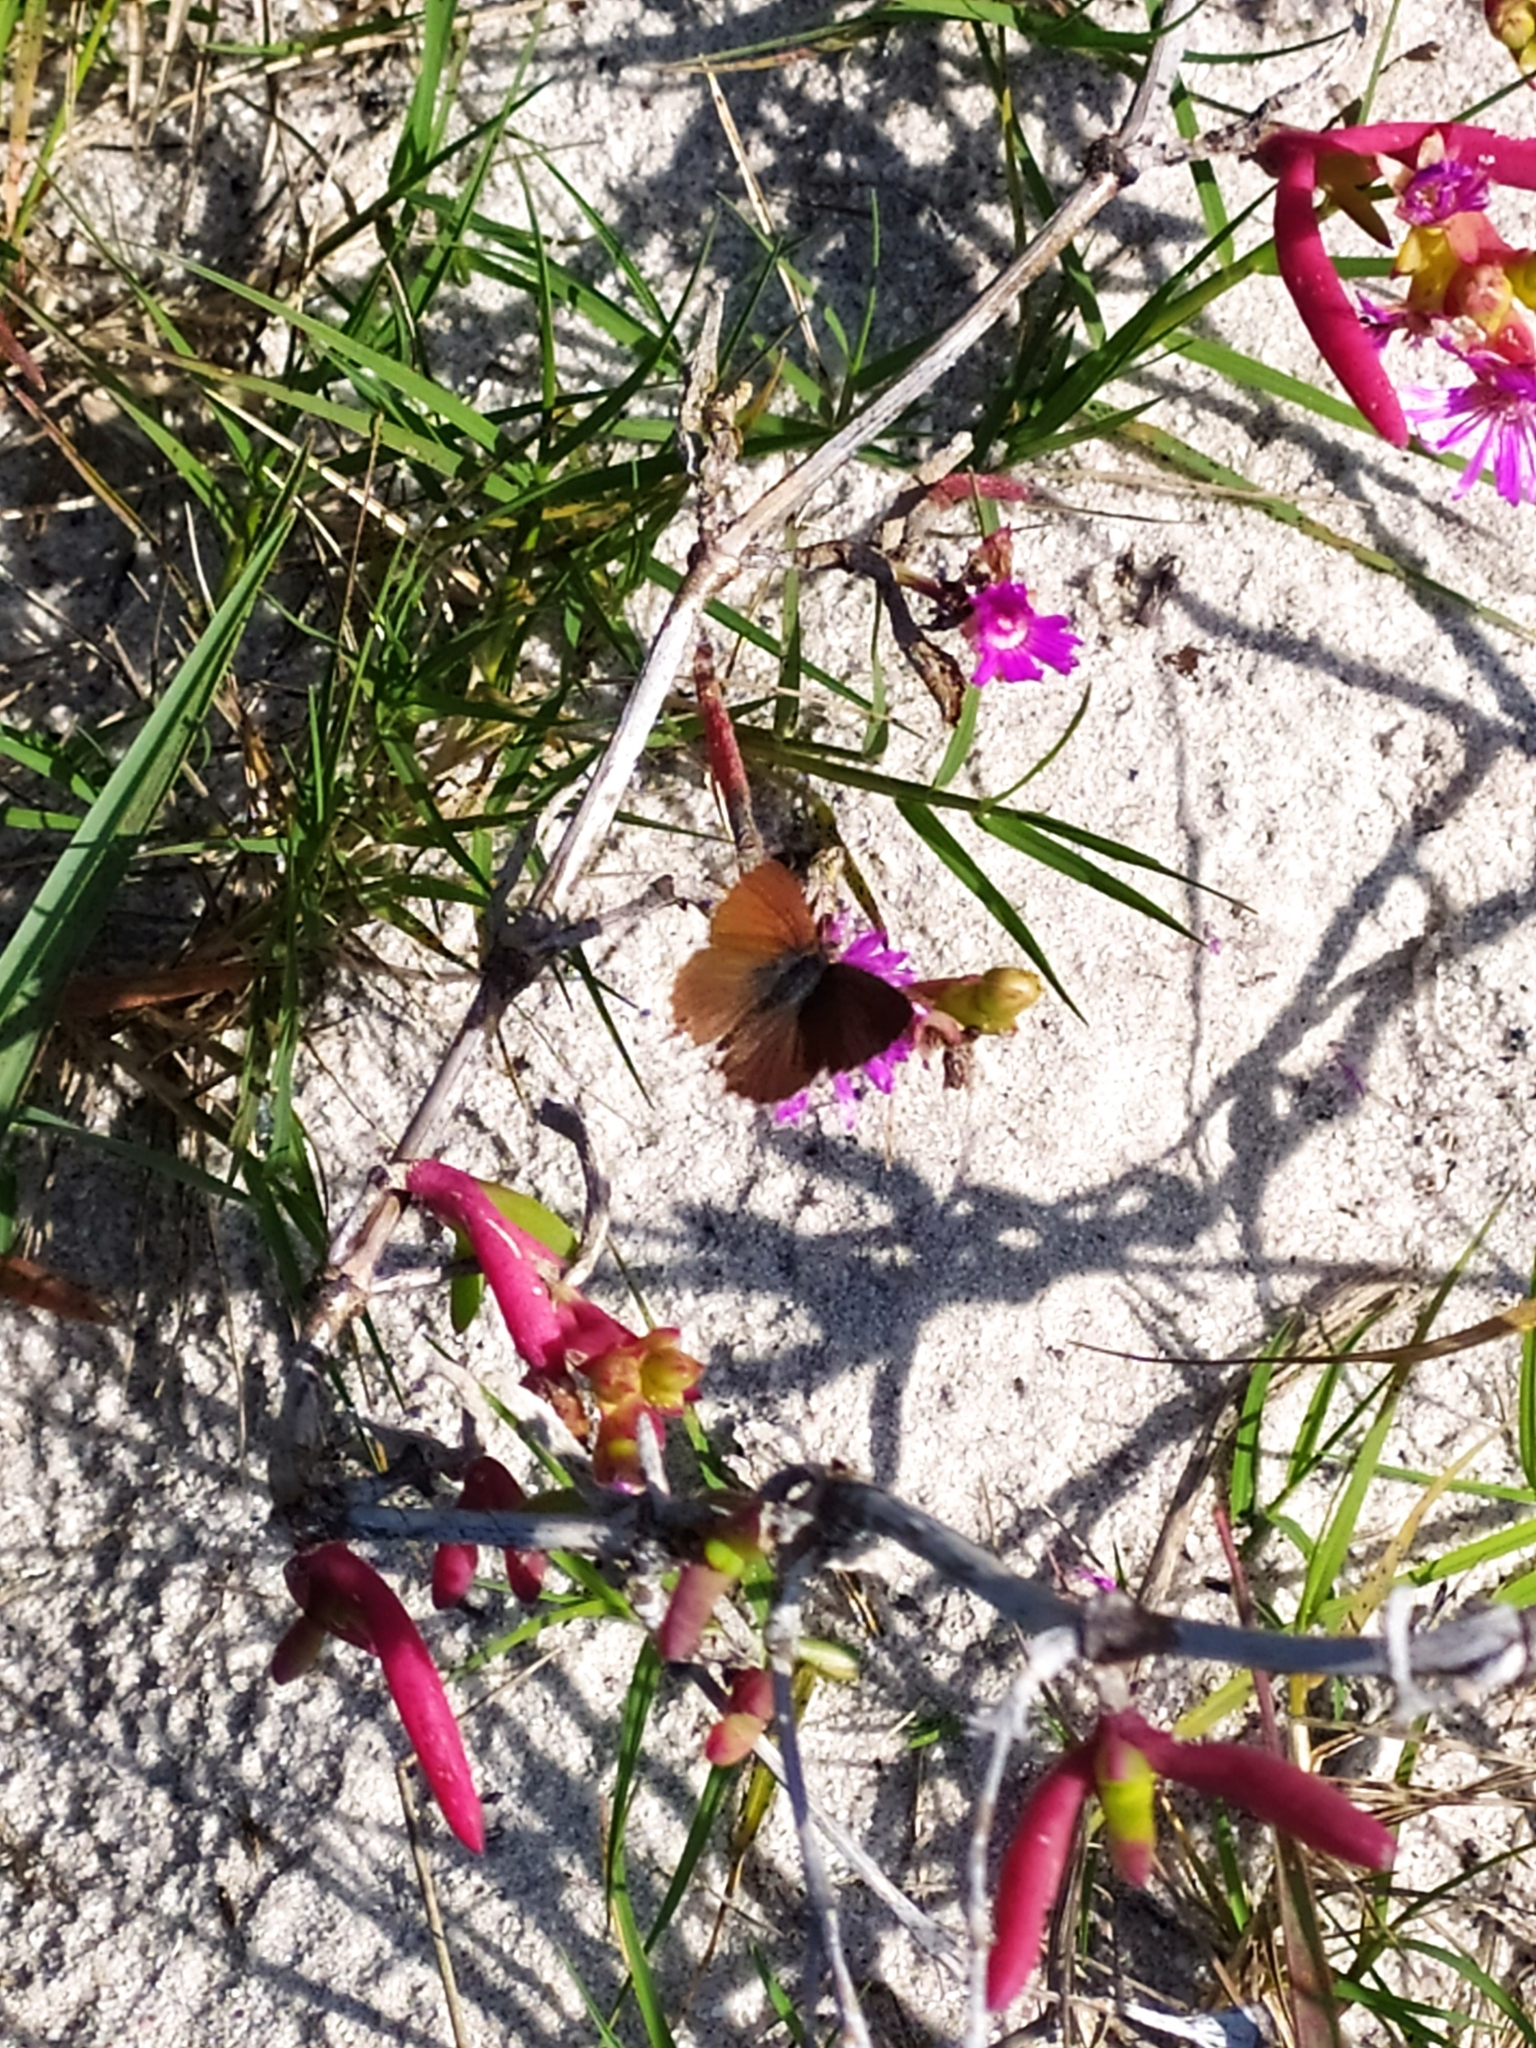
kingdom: Animalia
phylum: Arthropoda
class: Insecta
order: Lepidoptera
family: Lycaenidae
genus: Cacyreus
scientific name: Cacyreus fracta
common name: Water bronze
